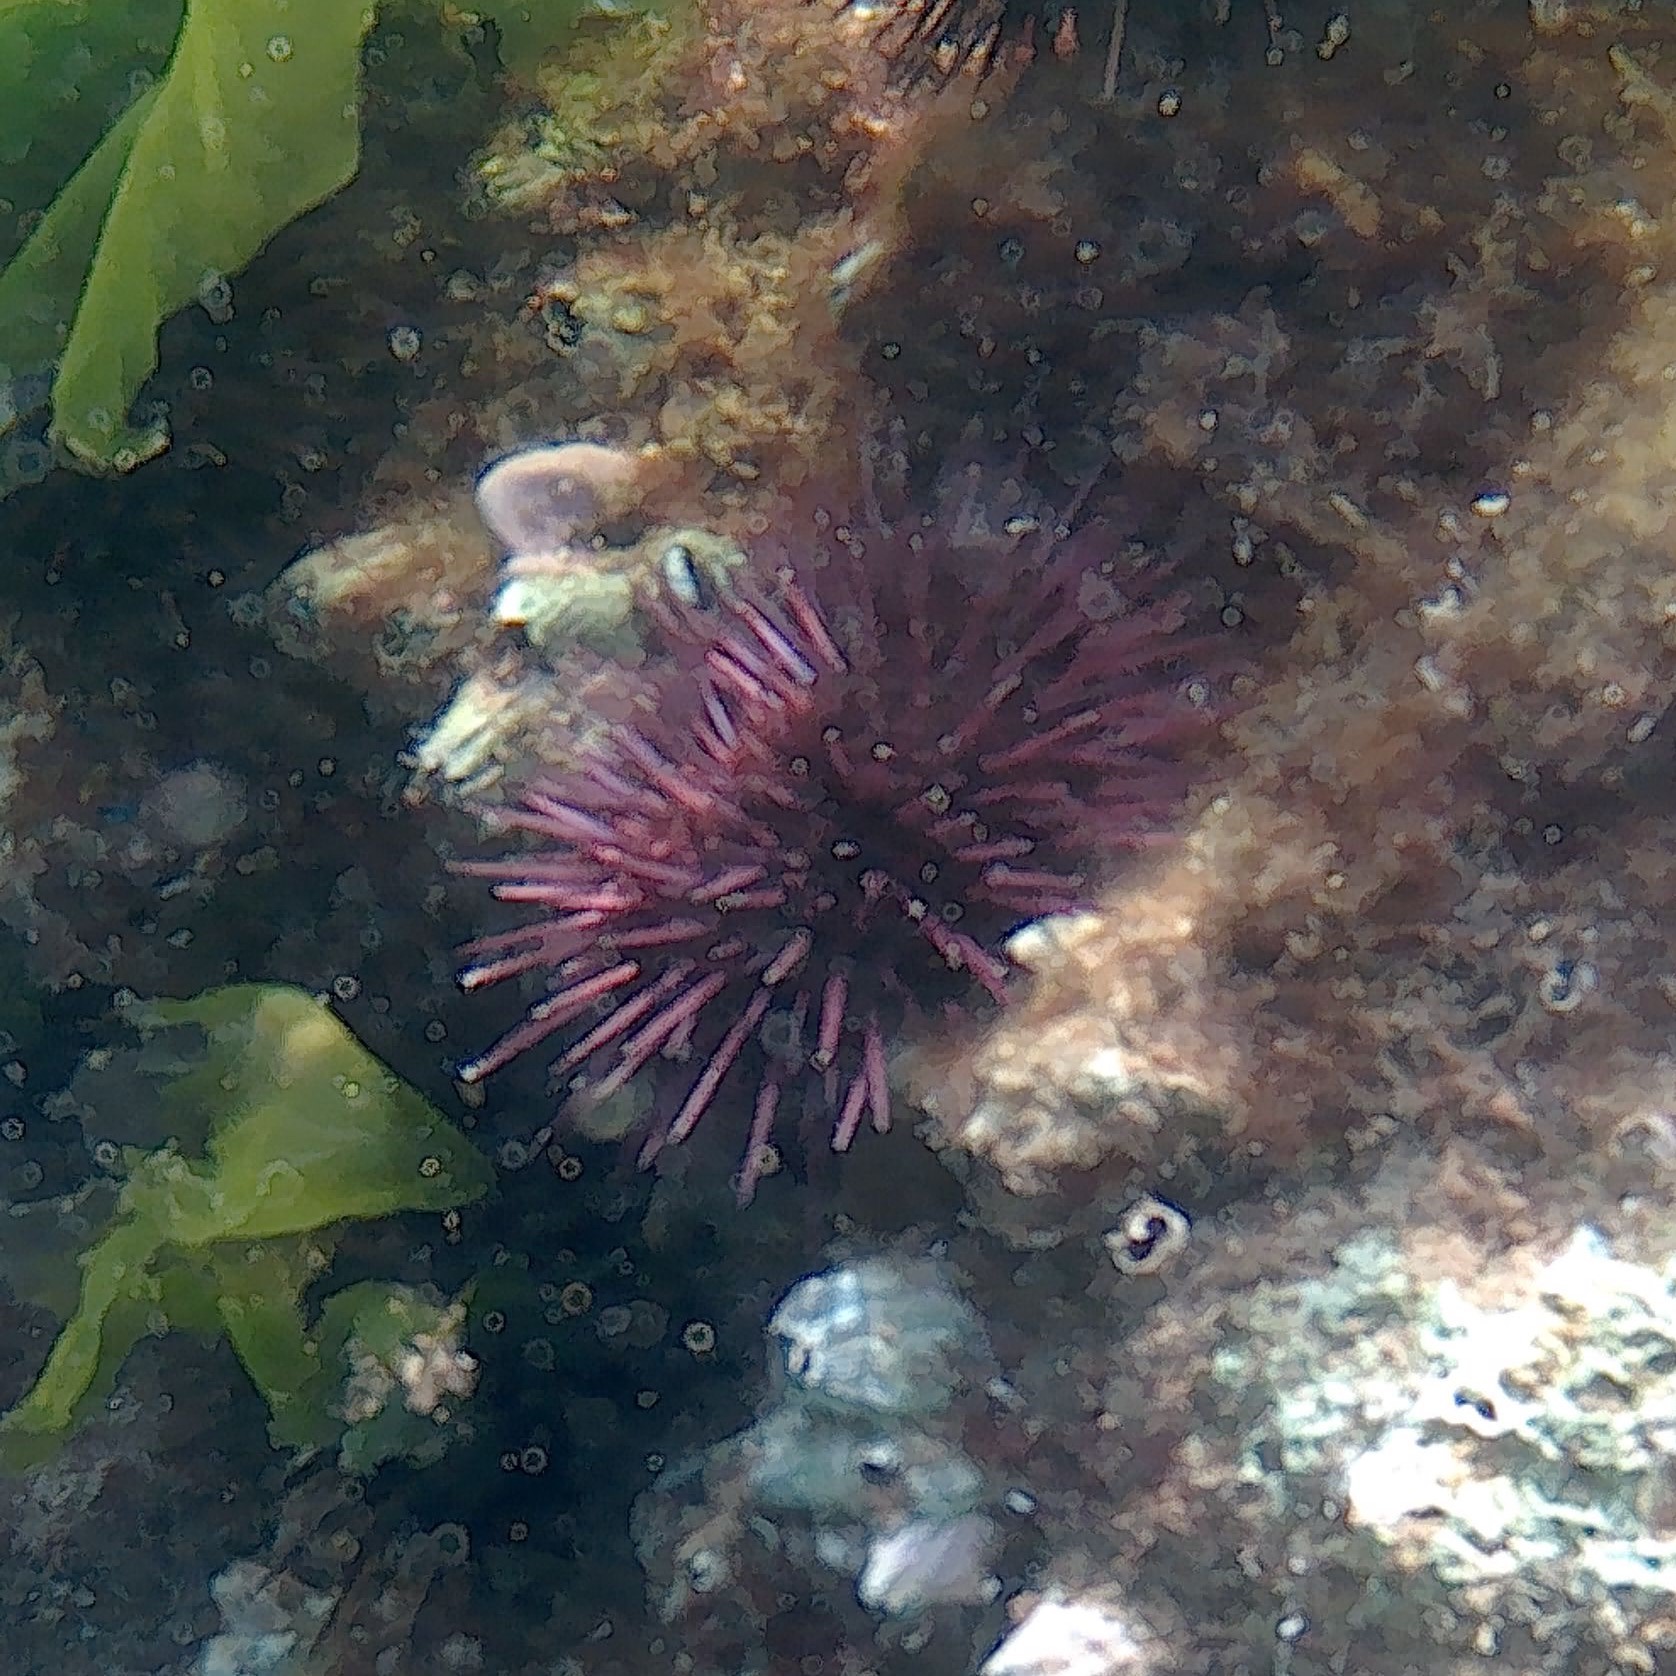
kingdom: Animalia
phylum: Echinodermata
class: Echinoidea
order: Camarodonta
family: Parechinidae
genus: Paracentrotus
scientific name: Paracentrotus lividus
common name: Purple sea urchin
